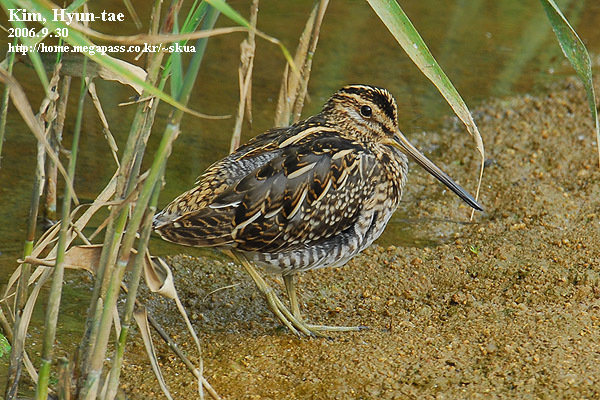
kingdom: Animalia
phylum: Chordata
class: Aves
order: Charadriiformes
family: Scolopacidae
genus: Gallinago
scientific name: Gallinago gallinago
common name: Common snipe
